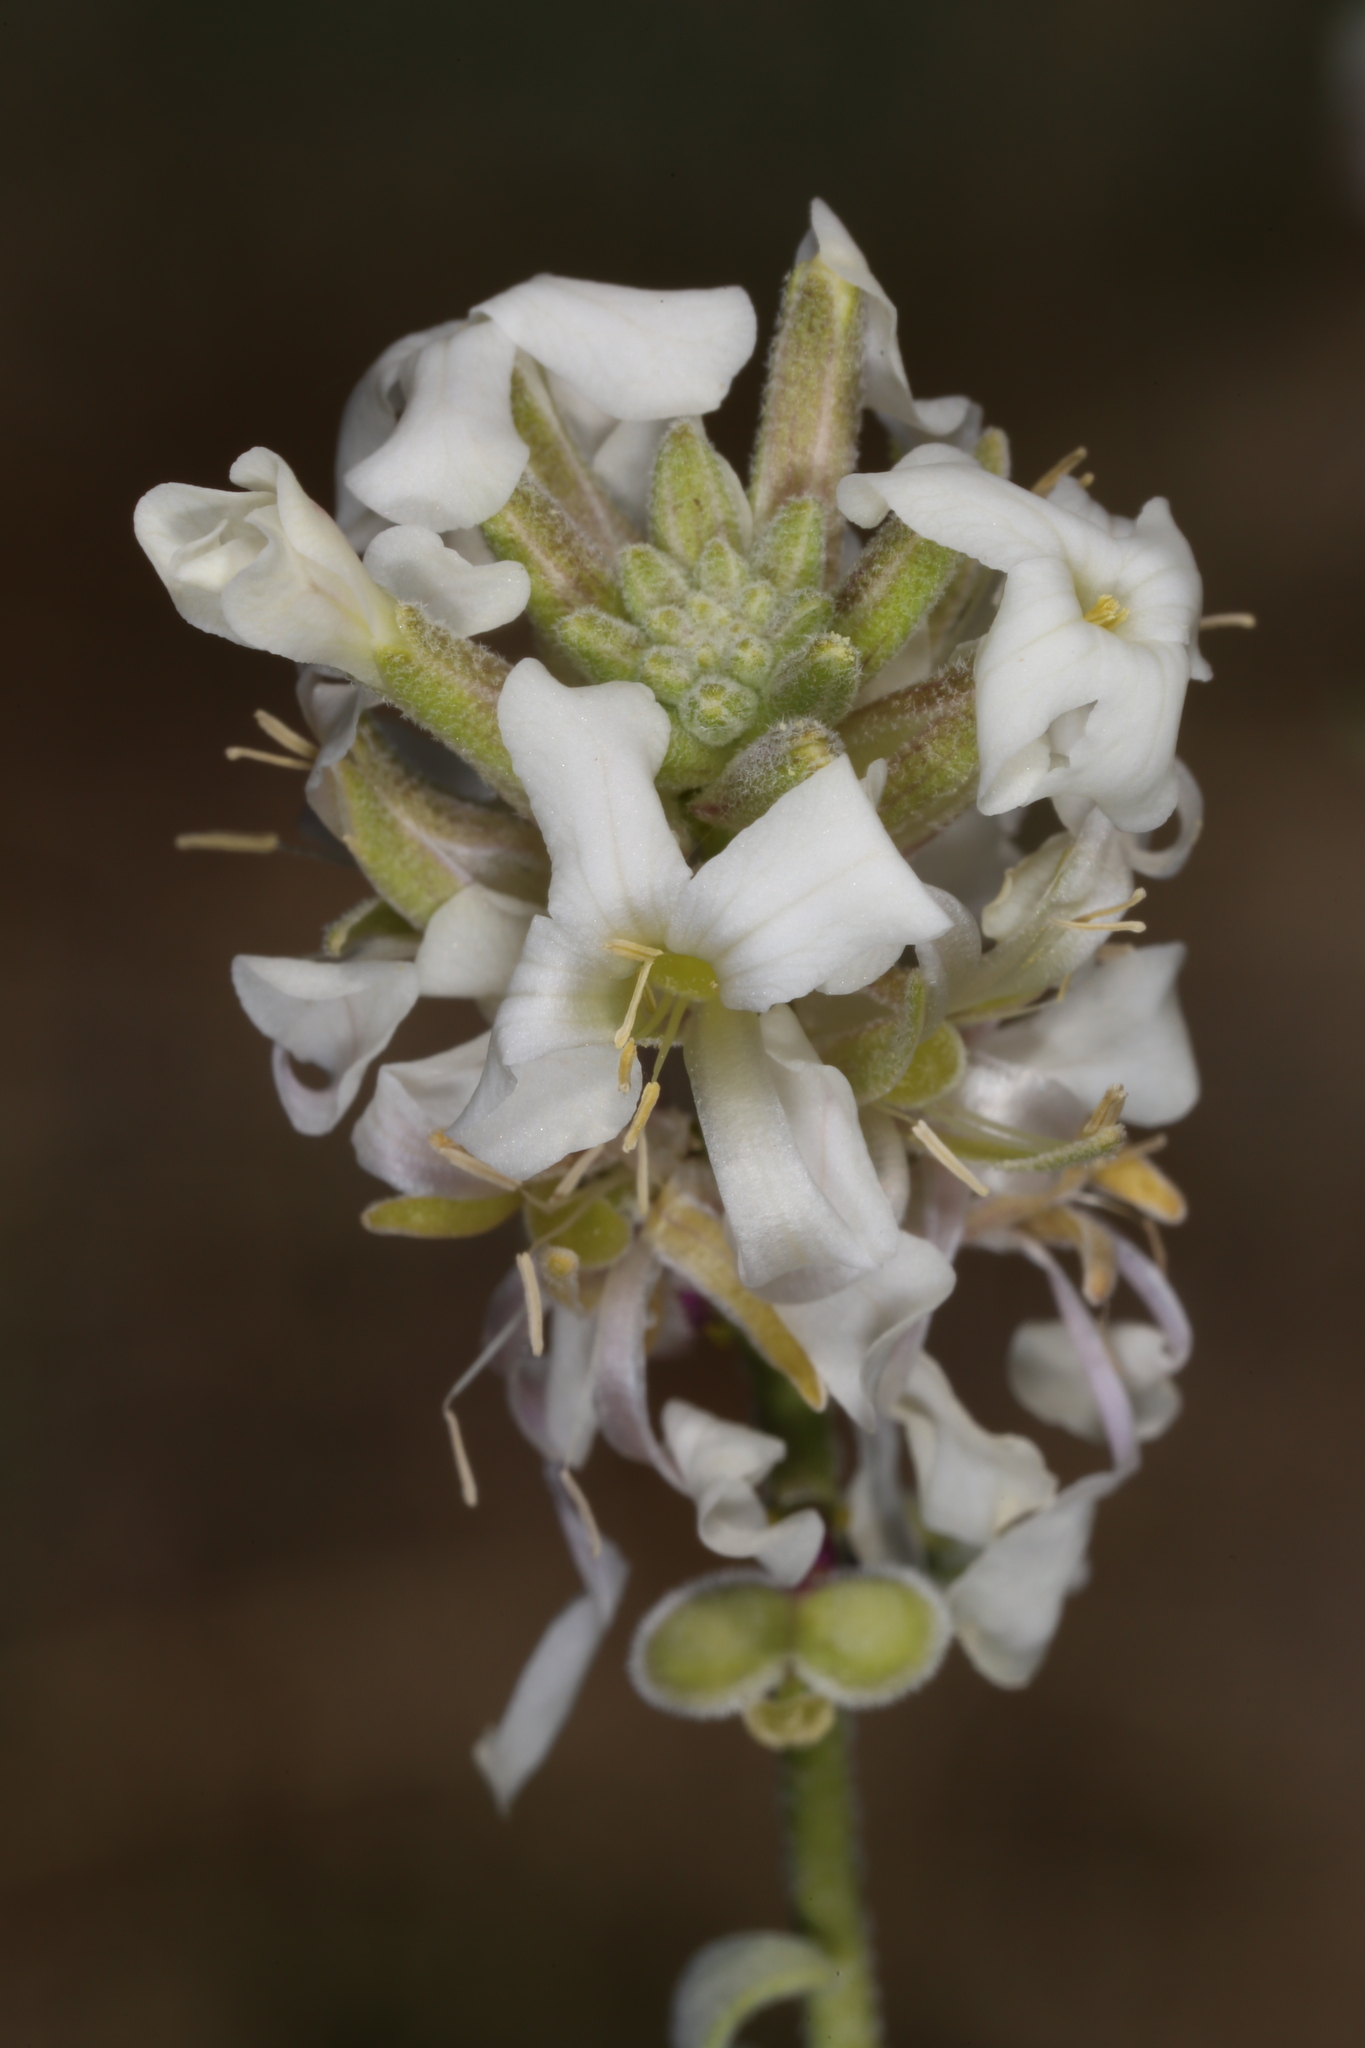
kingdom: Plantae
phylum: Tracheophyta
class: Magnoliopsida
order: Brassicales
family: Brassicaceae
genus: Dithyrea
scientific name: Dithyrea californica
